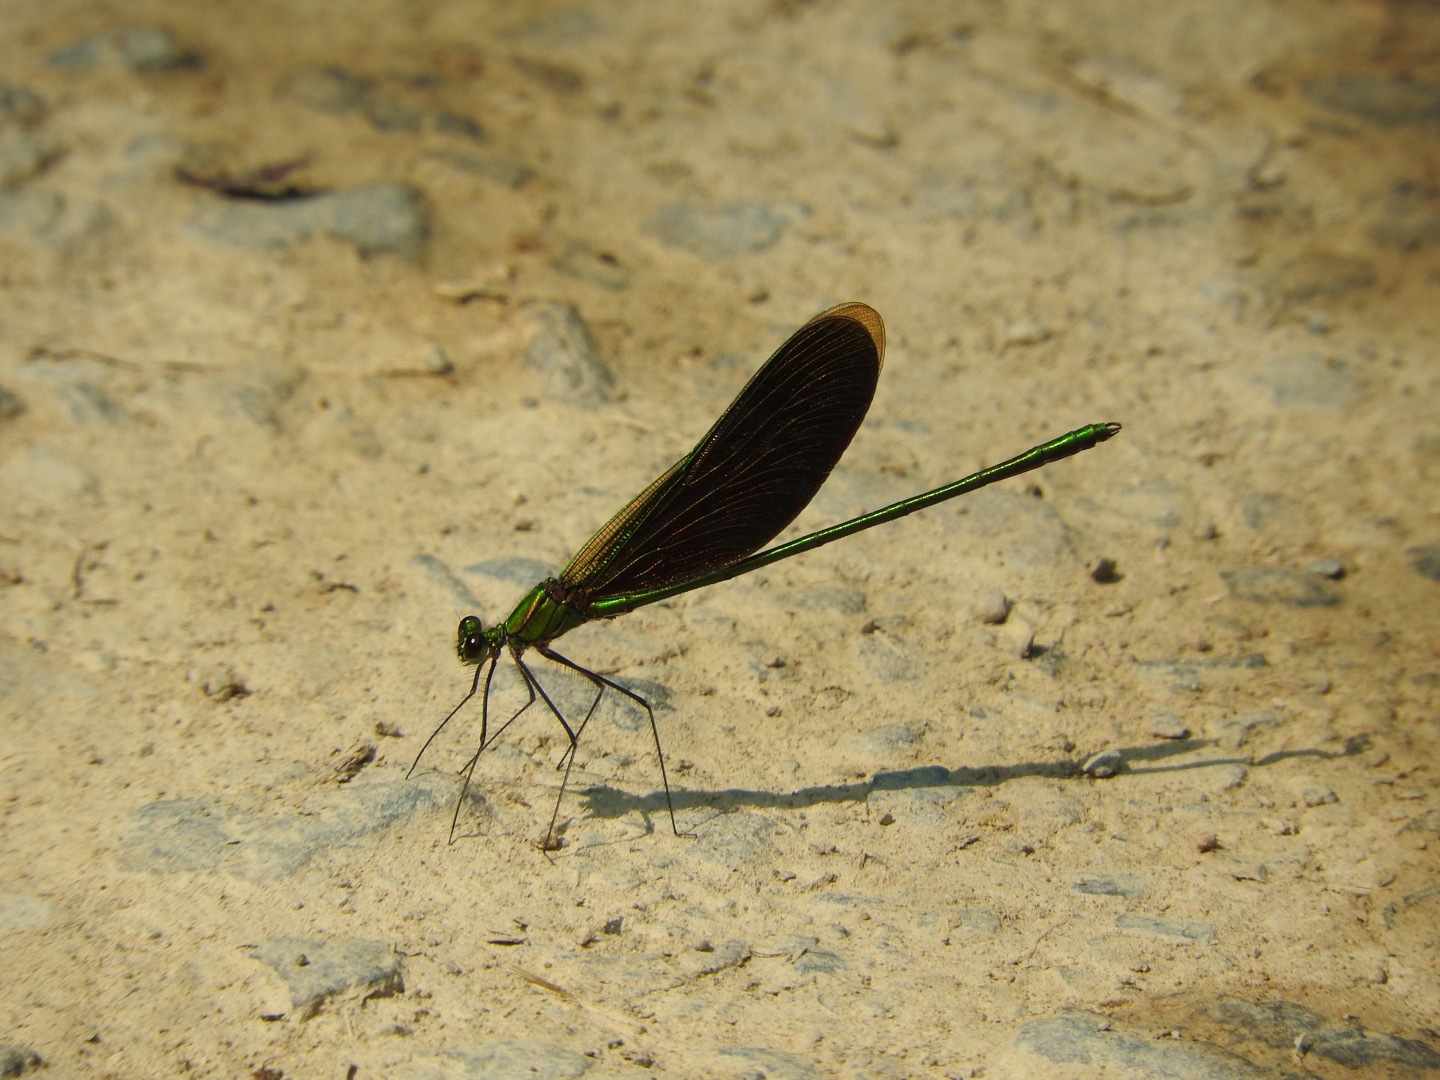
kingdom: Animalia
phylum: Arthropoda
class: Insecta
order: Odonata
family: Calopterygidae
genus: Neurobasis
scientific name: Neurobasis chinensis
